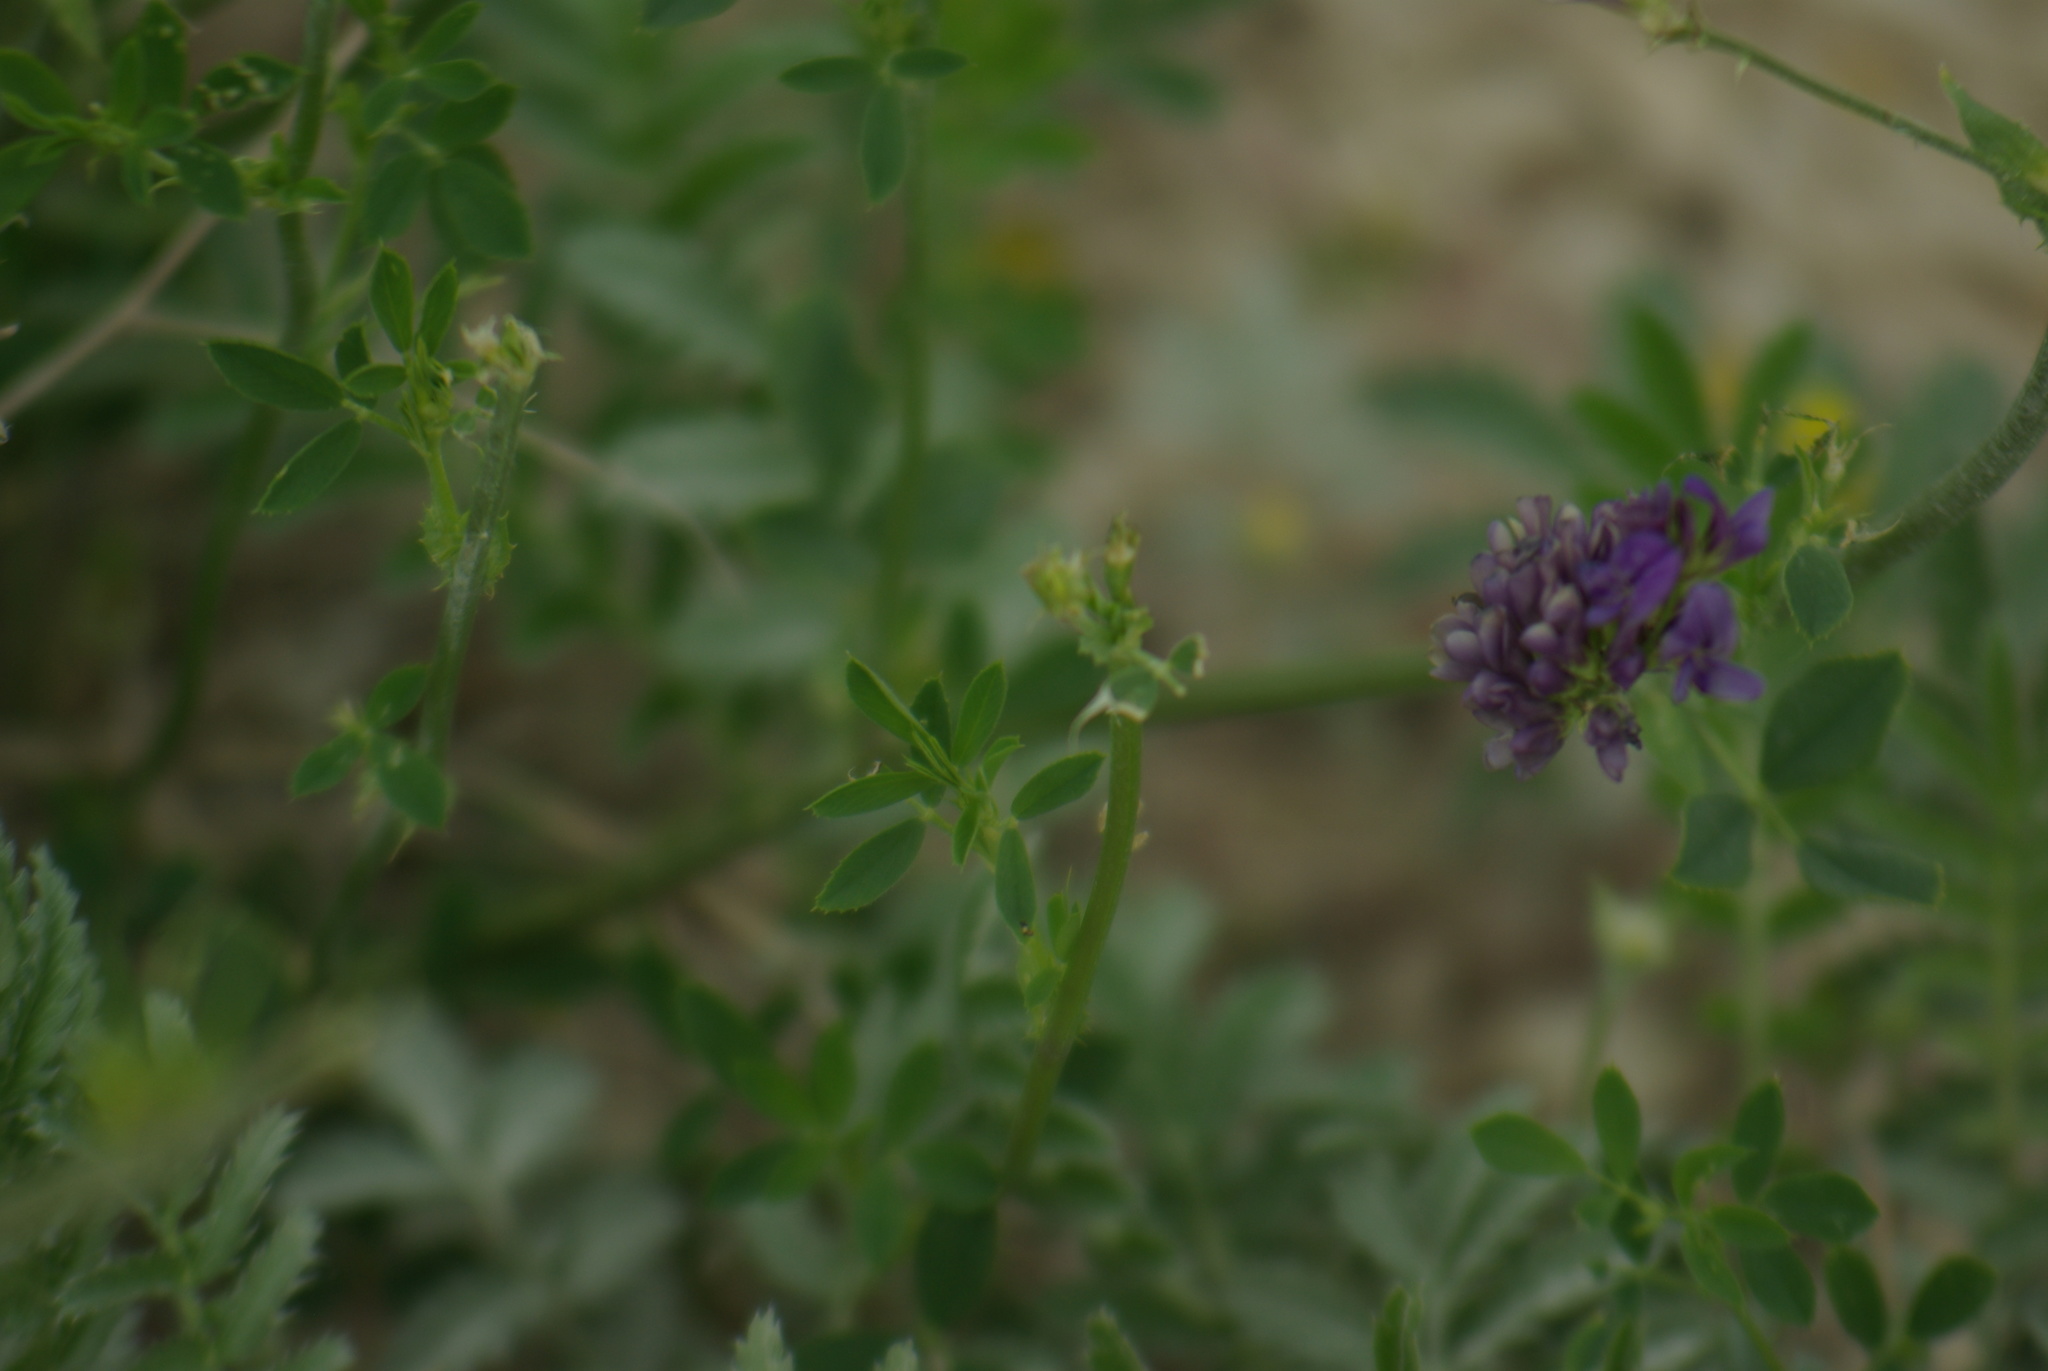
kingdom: Plantae
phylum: Tracheophyta
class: Magnoliopsida
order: Fabales
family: Fabaceae
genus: Medicago
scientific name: Medicago sativa
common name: Alfalfa
